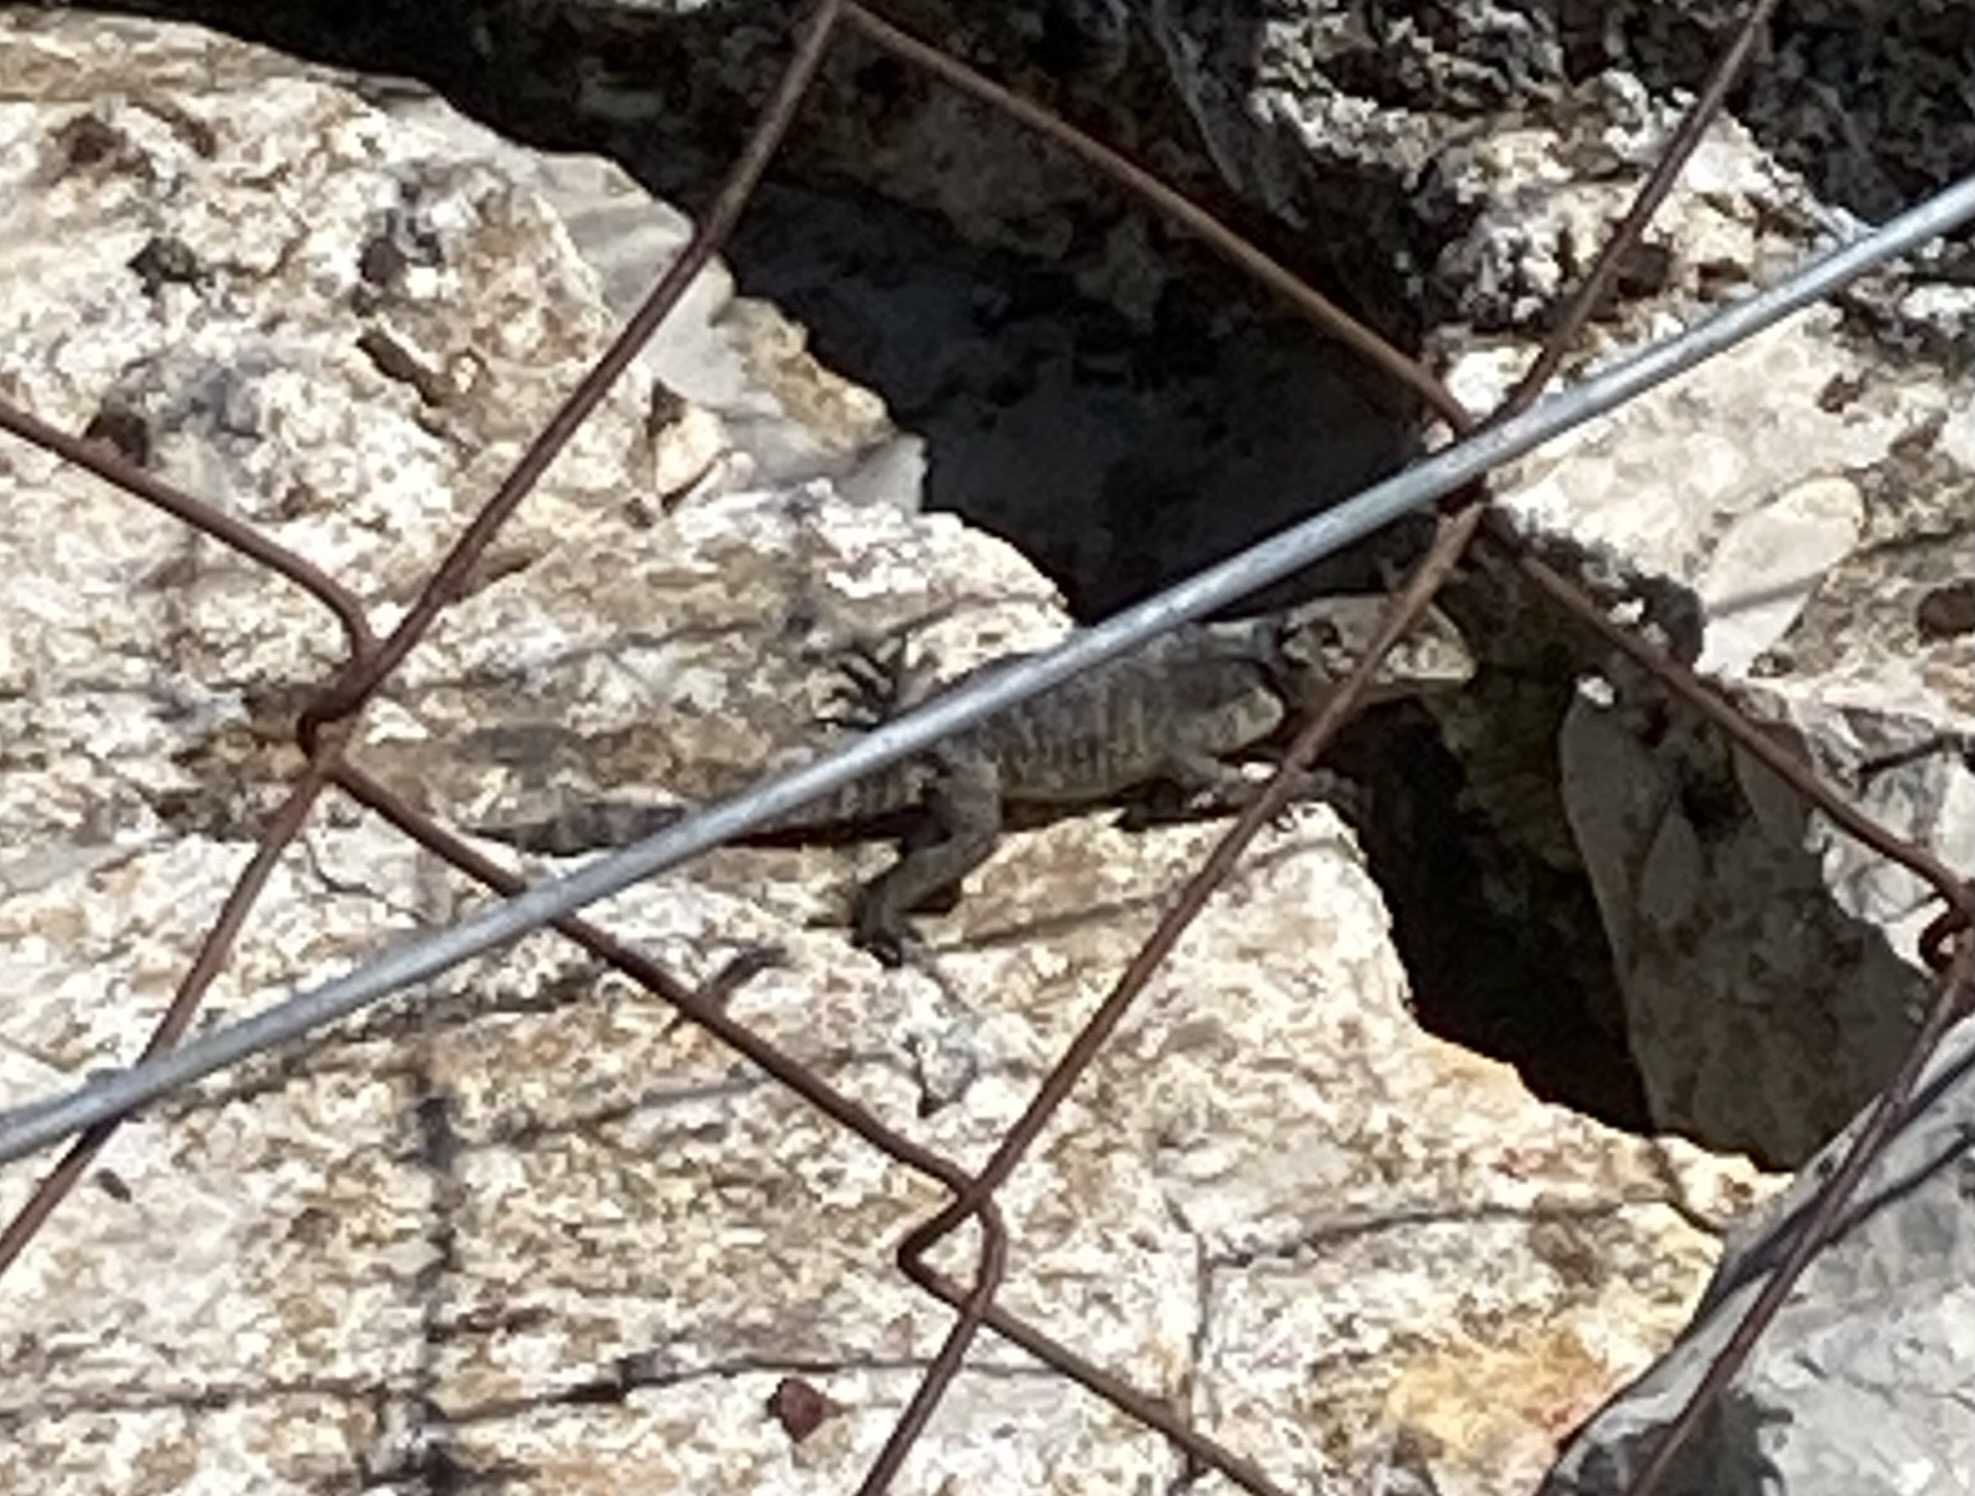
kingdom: Animalia
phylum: Chordata
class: Squamata
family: Agamidae
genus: Stellagama
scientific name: Stellagama stellio
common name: Starred agama
